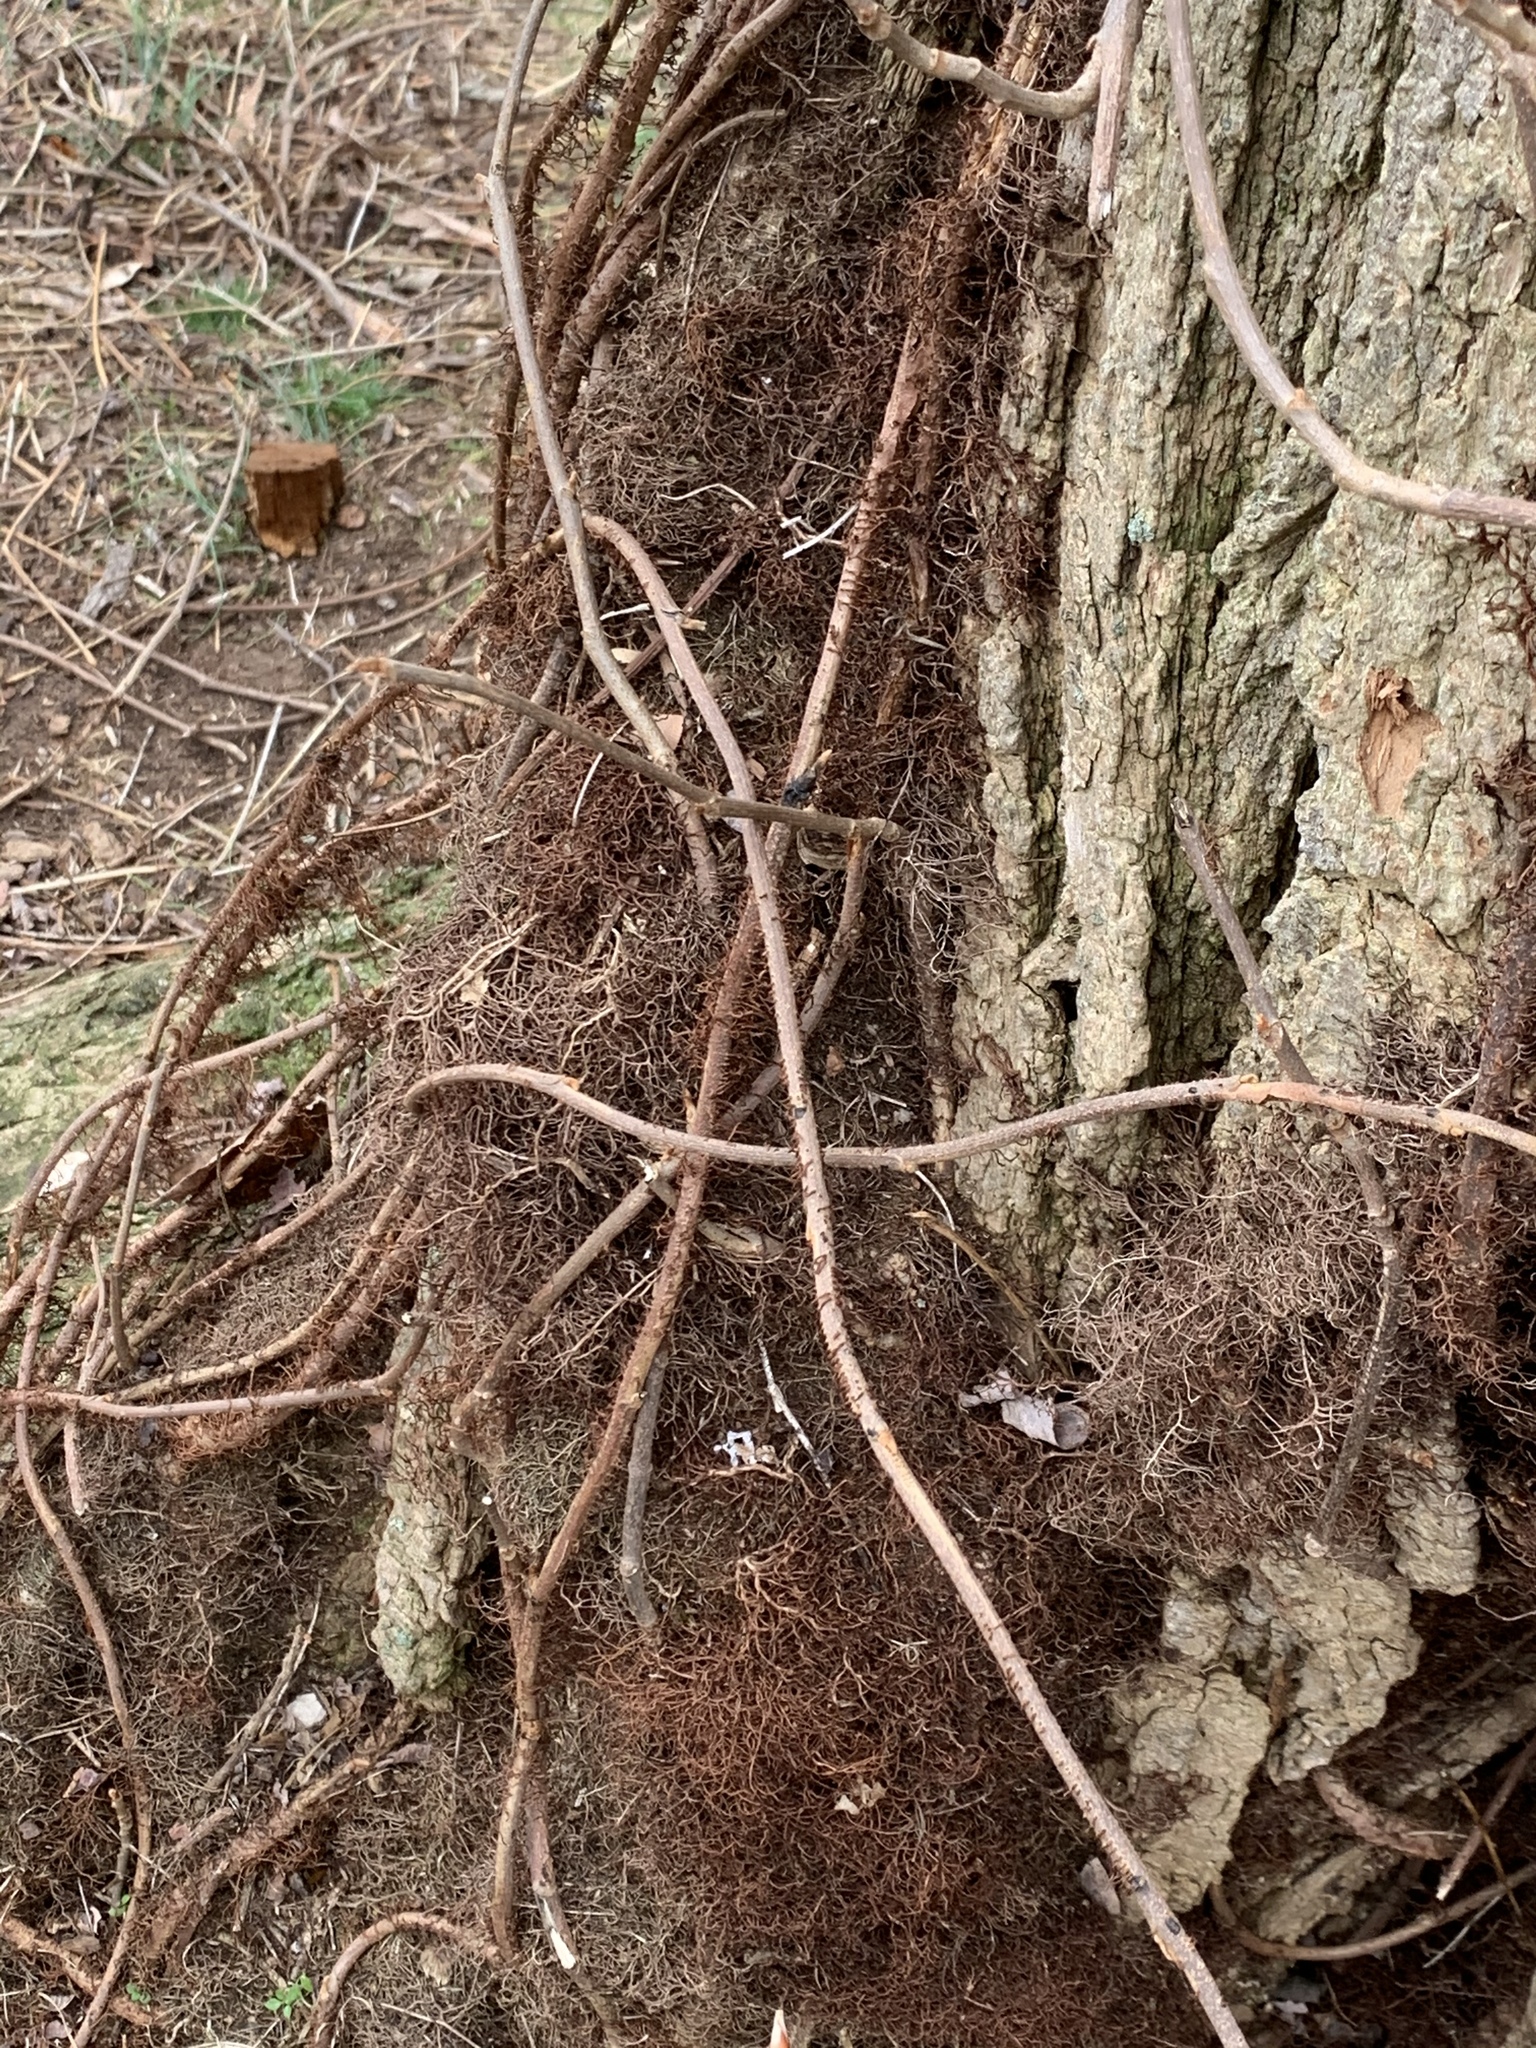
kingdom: Plantae
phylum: Tracheophyta
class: Magnoliopsida
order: Sapindales
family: Anacardiaceae
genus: Toxicodendron
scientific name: Toxicodendron radicans
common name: Poison ivy
